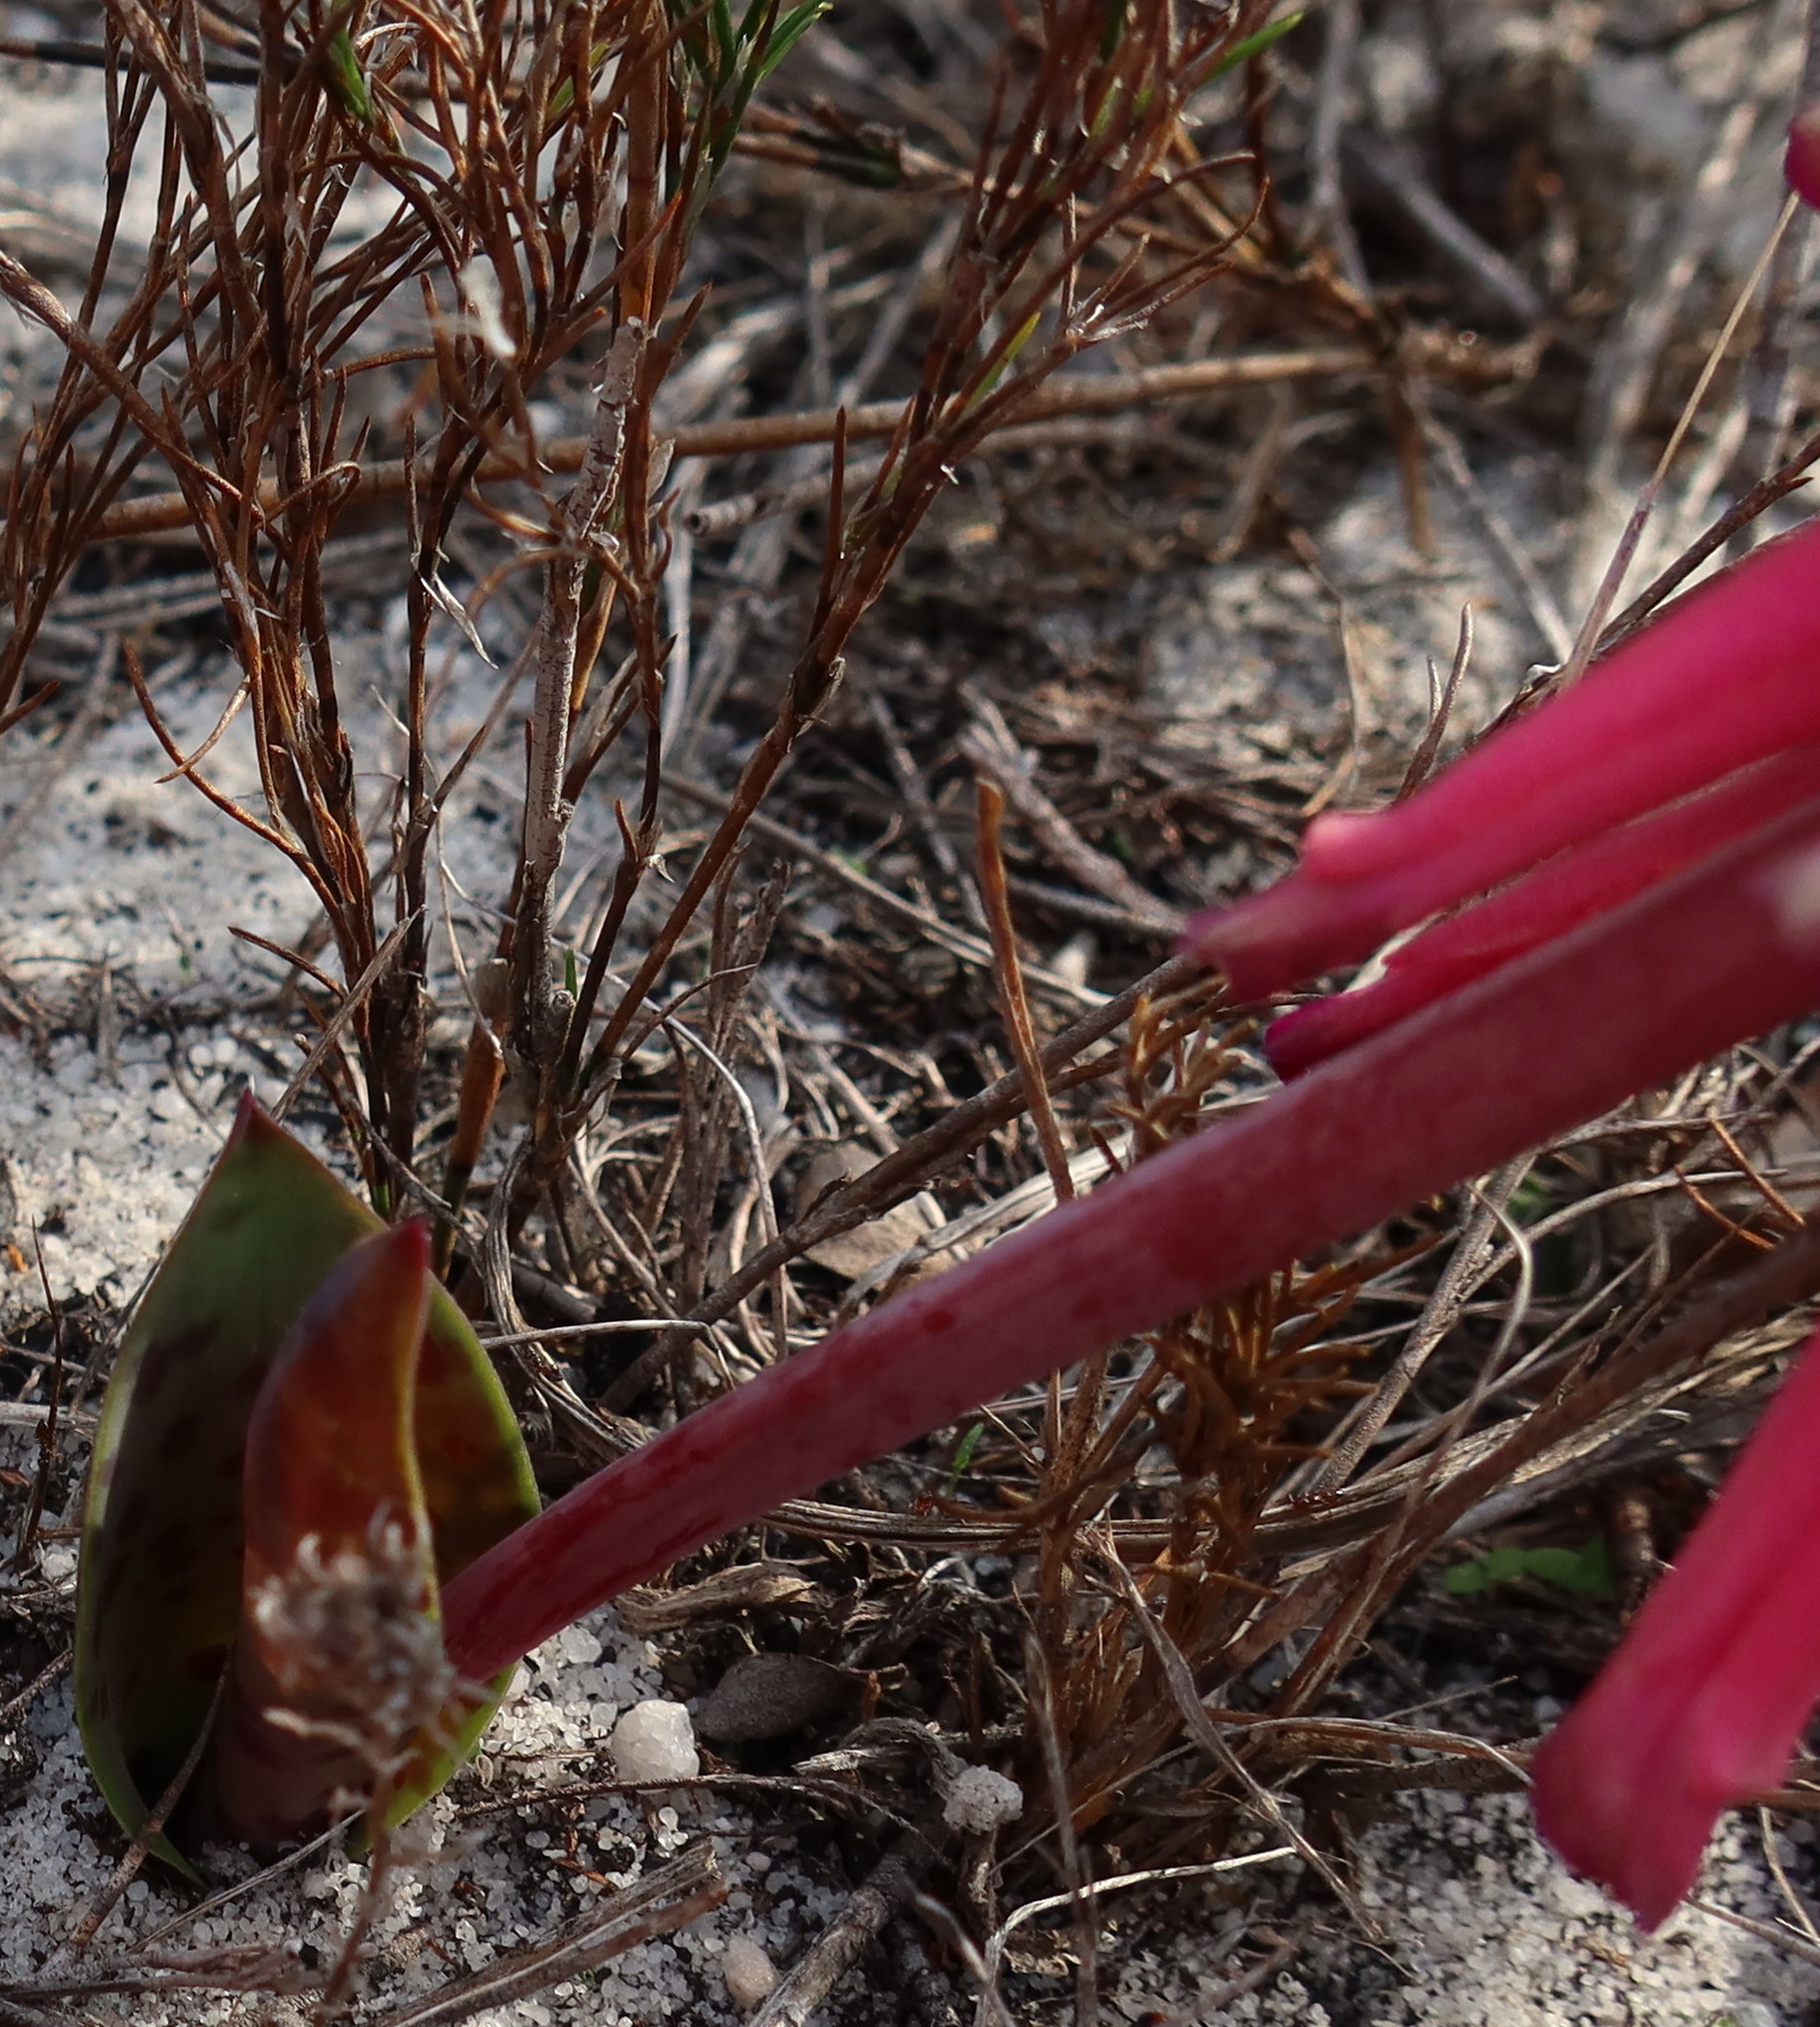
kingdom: Plantae
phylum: Tracheophyta
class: Liliopsida
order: Asparagales
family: Asparagaceae
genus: Lachenalia
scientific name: Lachenalia punctata
